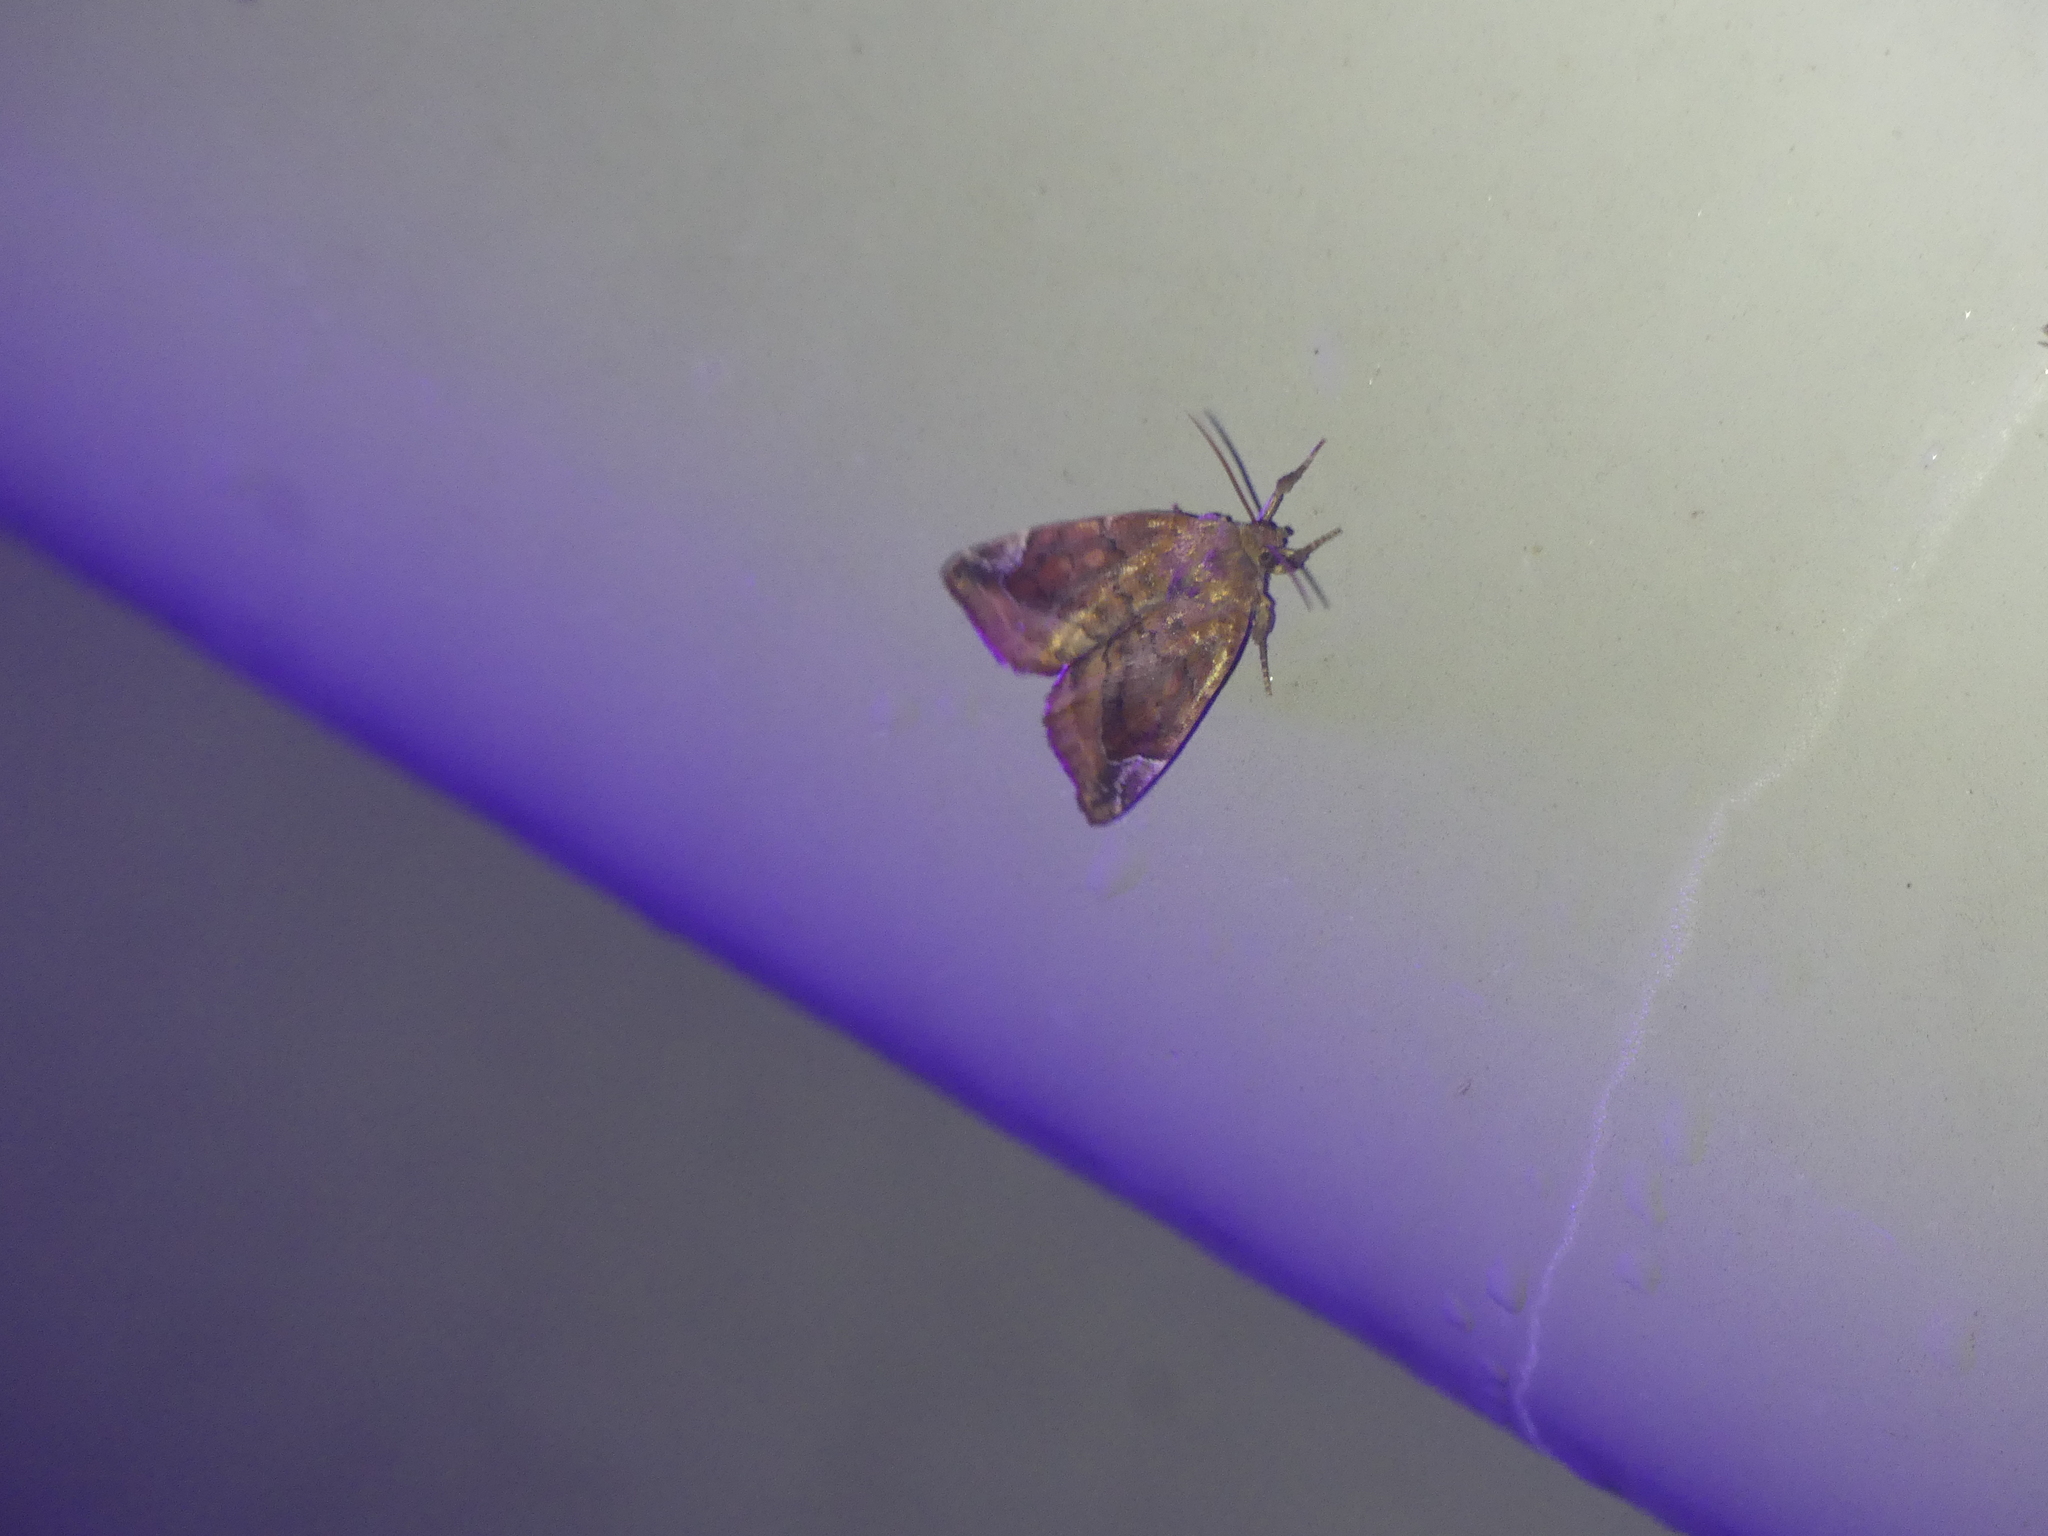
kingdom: Animalia
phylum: Arthropoda
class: Insecta
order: Lepidoptera
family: Noctuidae
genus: Cosmia
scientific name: Cosmia pyralina
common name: Lunar-spotted pinion
